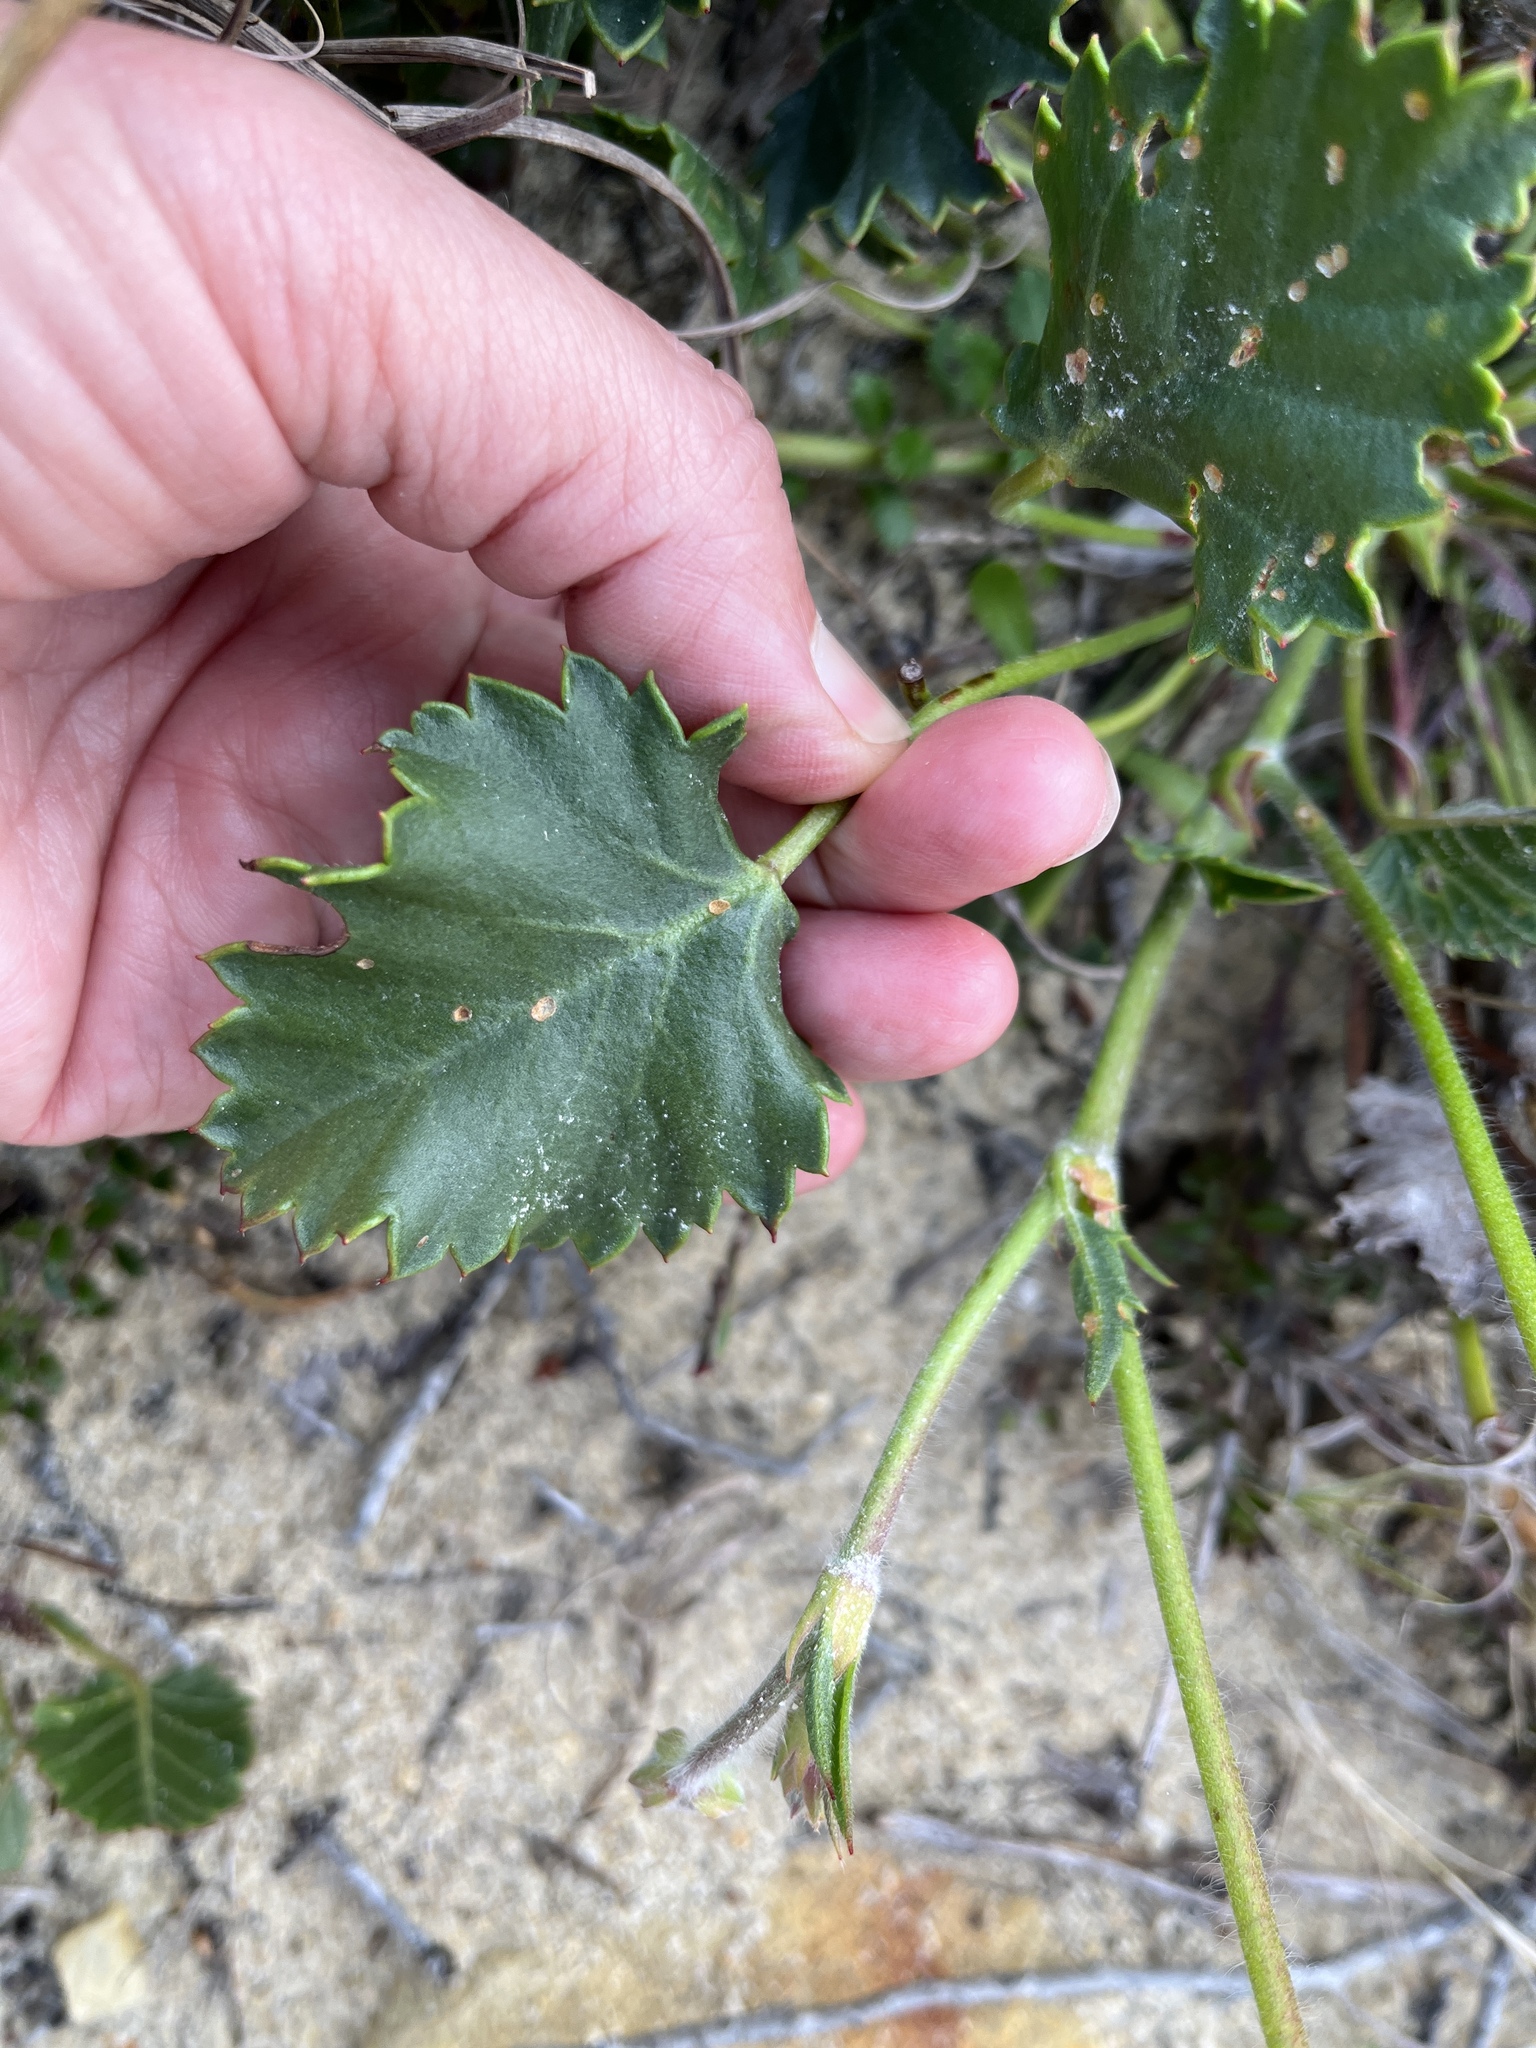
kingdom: Plantae
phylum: Tracheophyta
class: Magnoliopsida
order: Geraniales
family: Geraniaceae
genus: Pelargonium
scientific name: Pelargonium elegans
